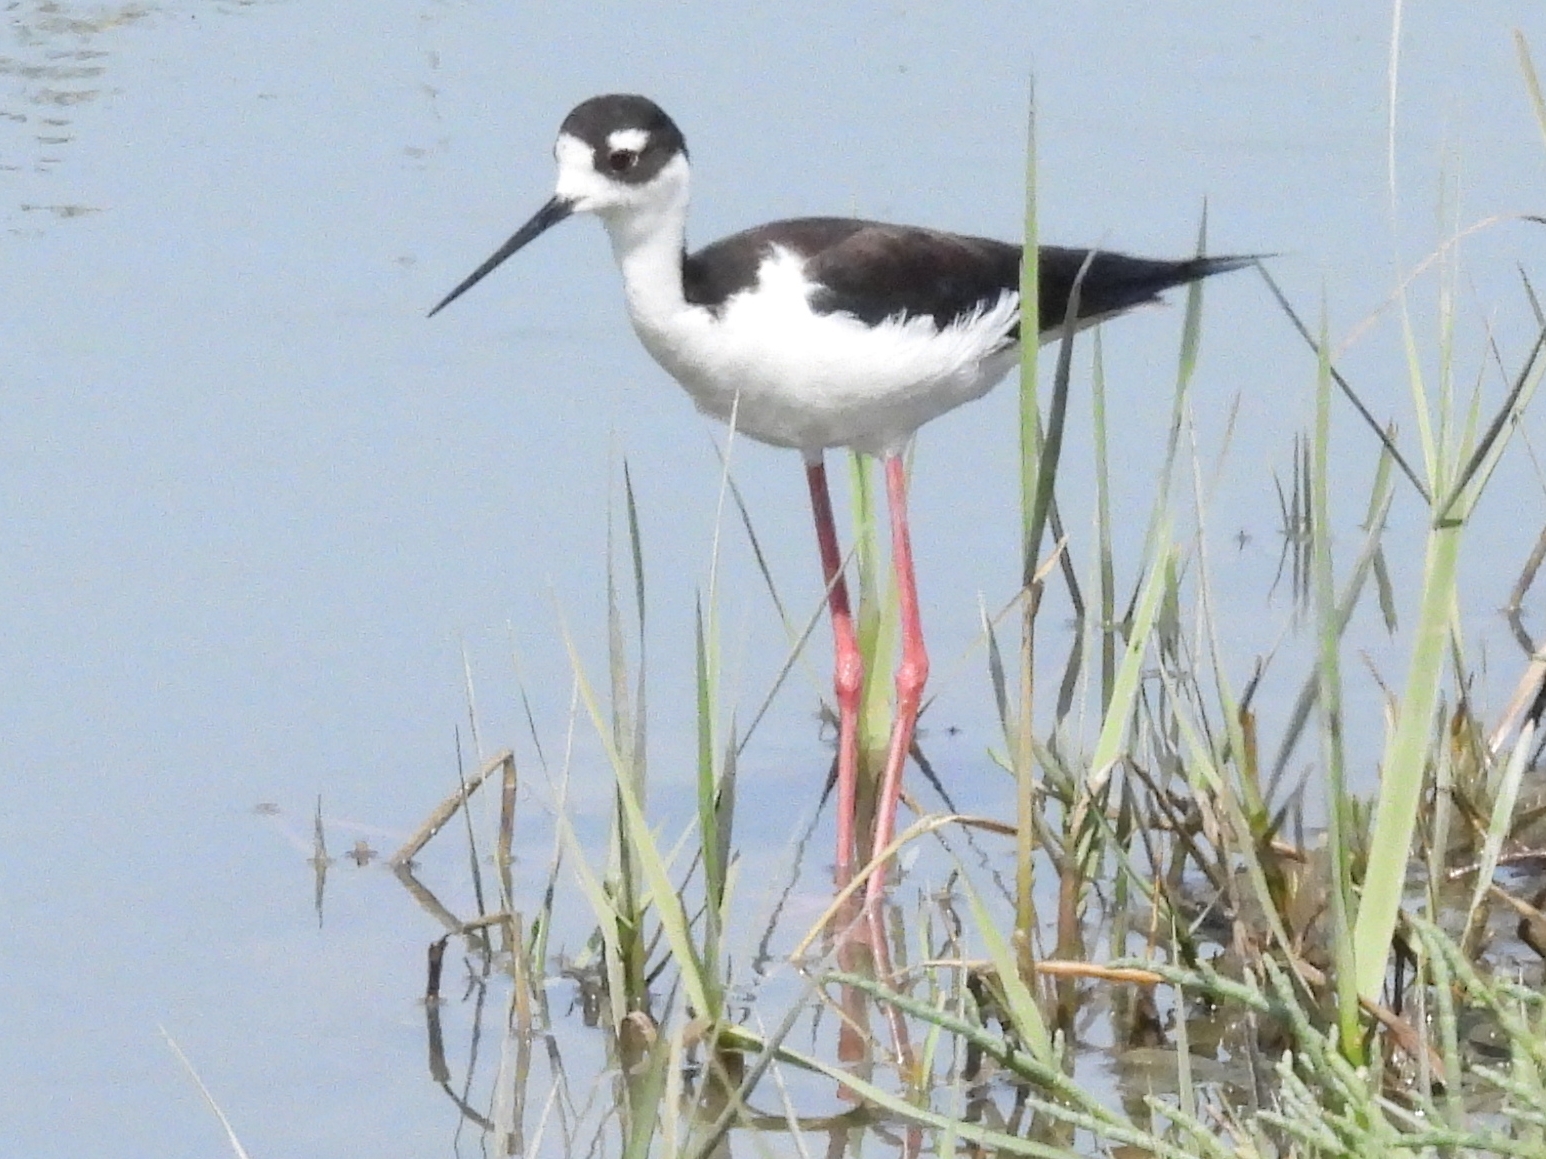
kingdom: Animalia
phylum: Chordata
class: Aves
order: Charadriiformes
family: Recurvirostridae
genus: Himantopus
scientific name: Himantopus mexicanus
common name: Black-necked stilt
